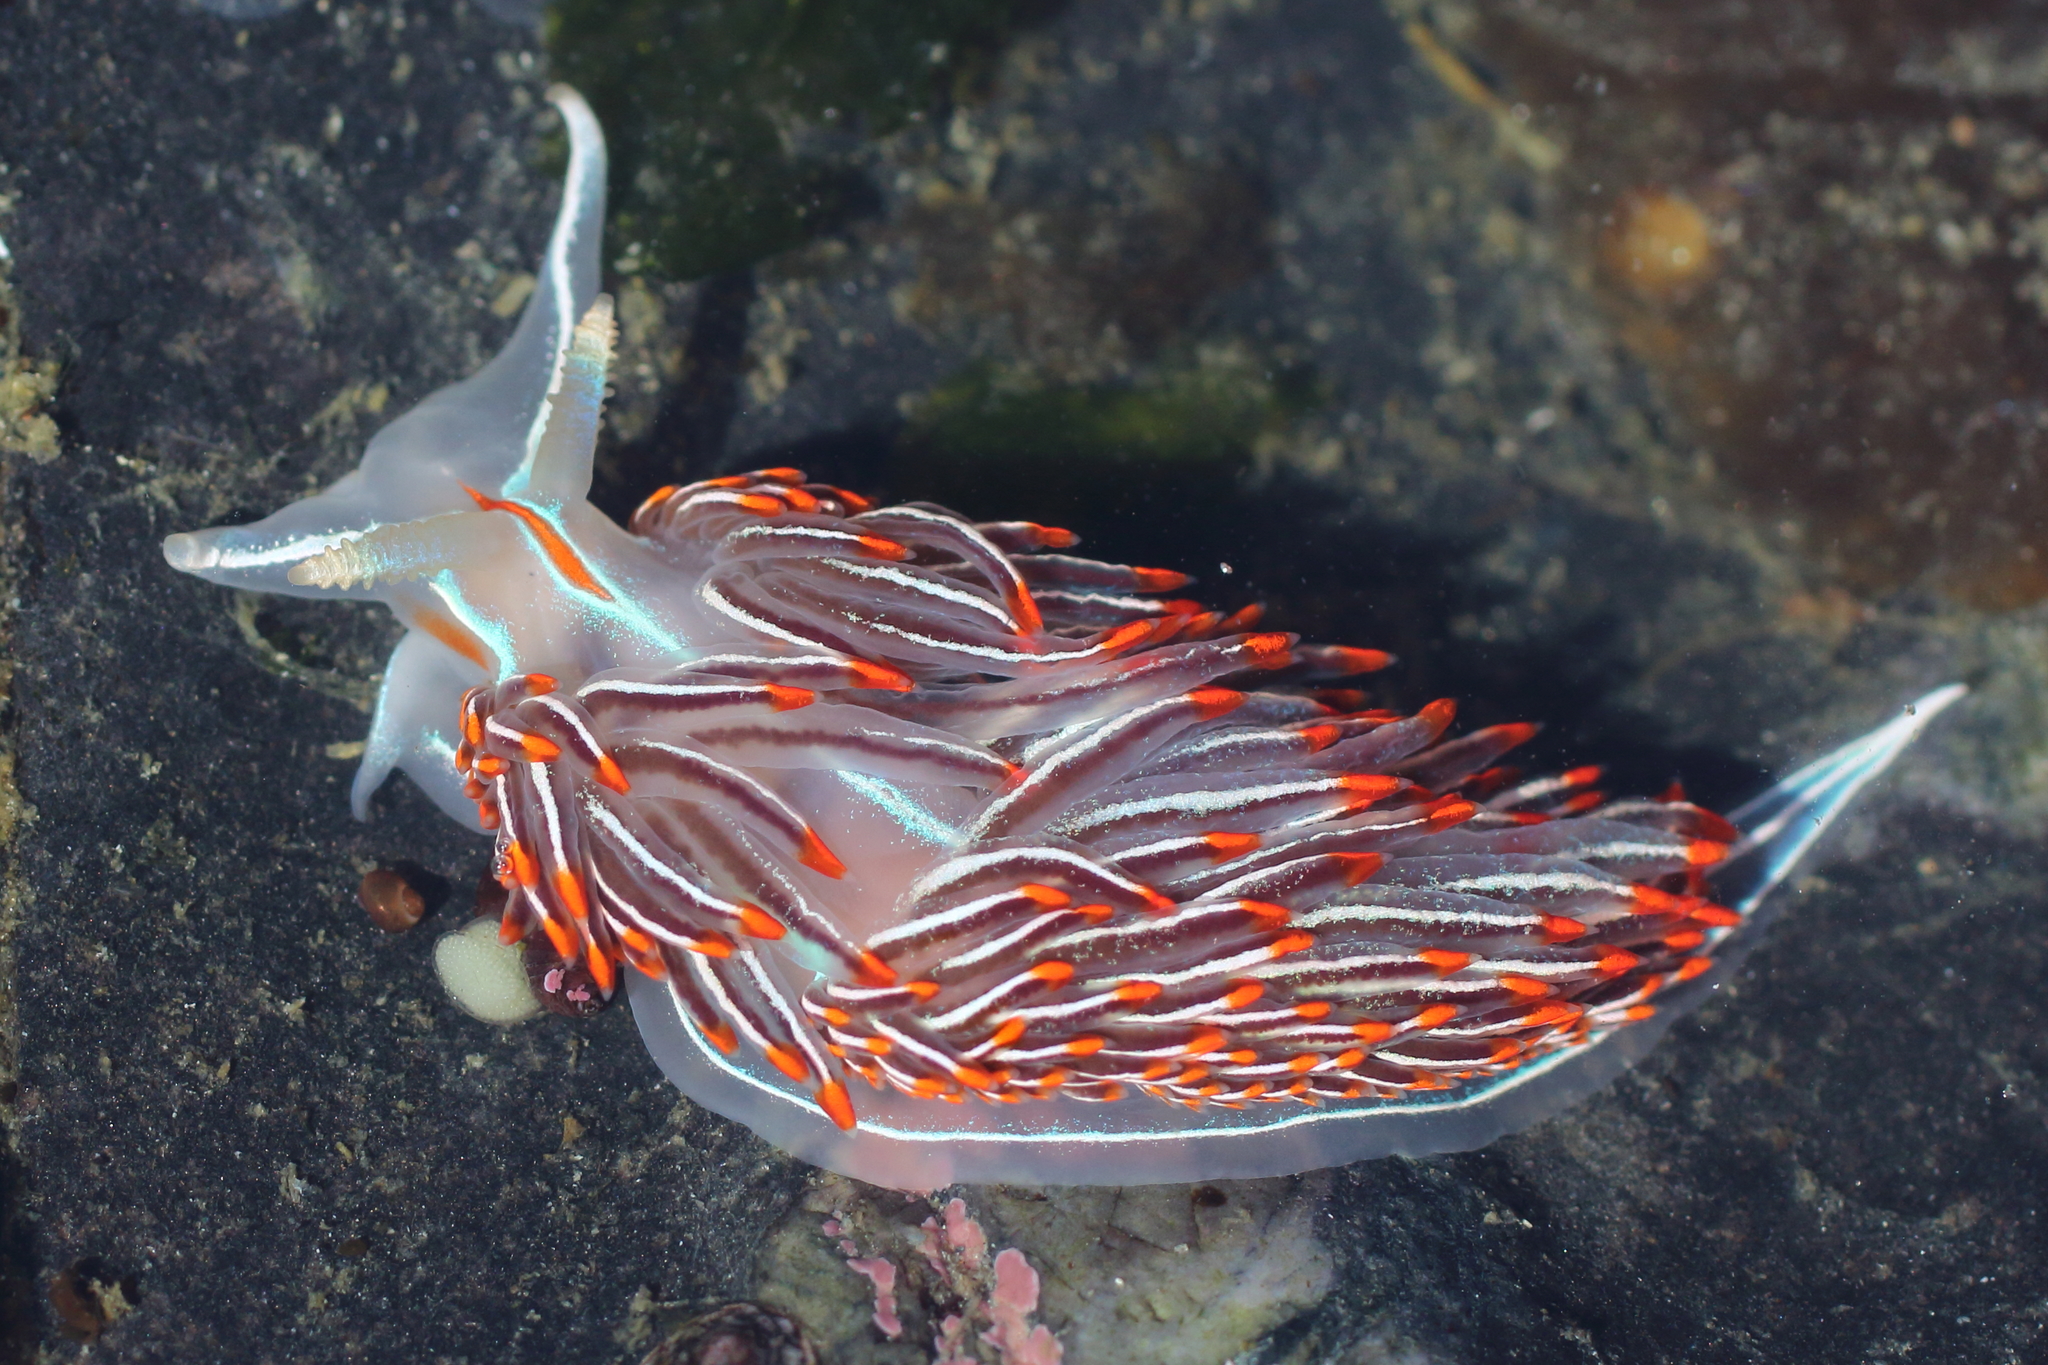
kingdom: Animalia
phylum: Mollusca
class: Gastropoda
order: Nudibranchia
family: Myrrhinidae
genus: Hermissenda
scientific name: Hermissenda crassicornis
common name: Hermissenda
